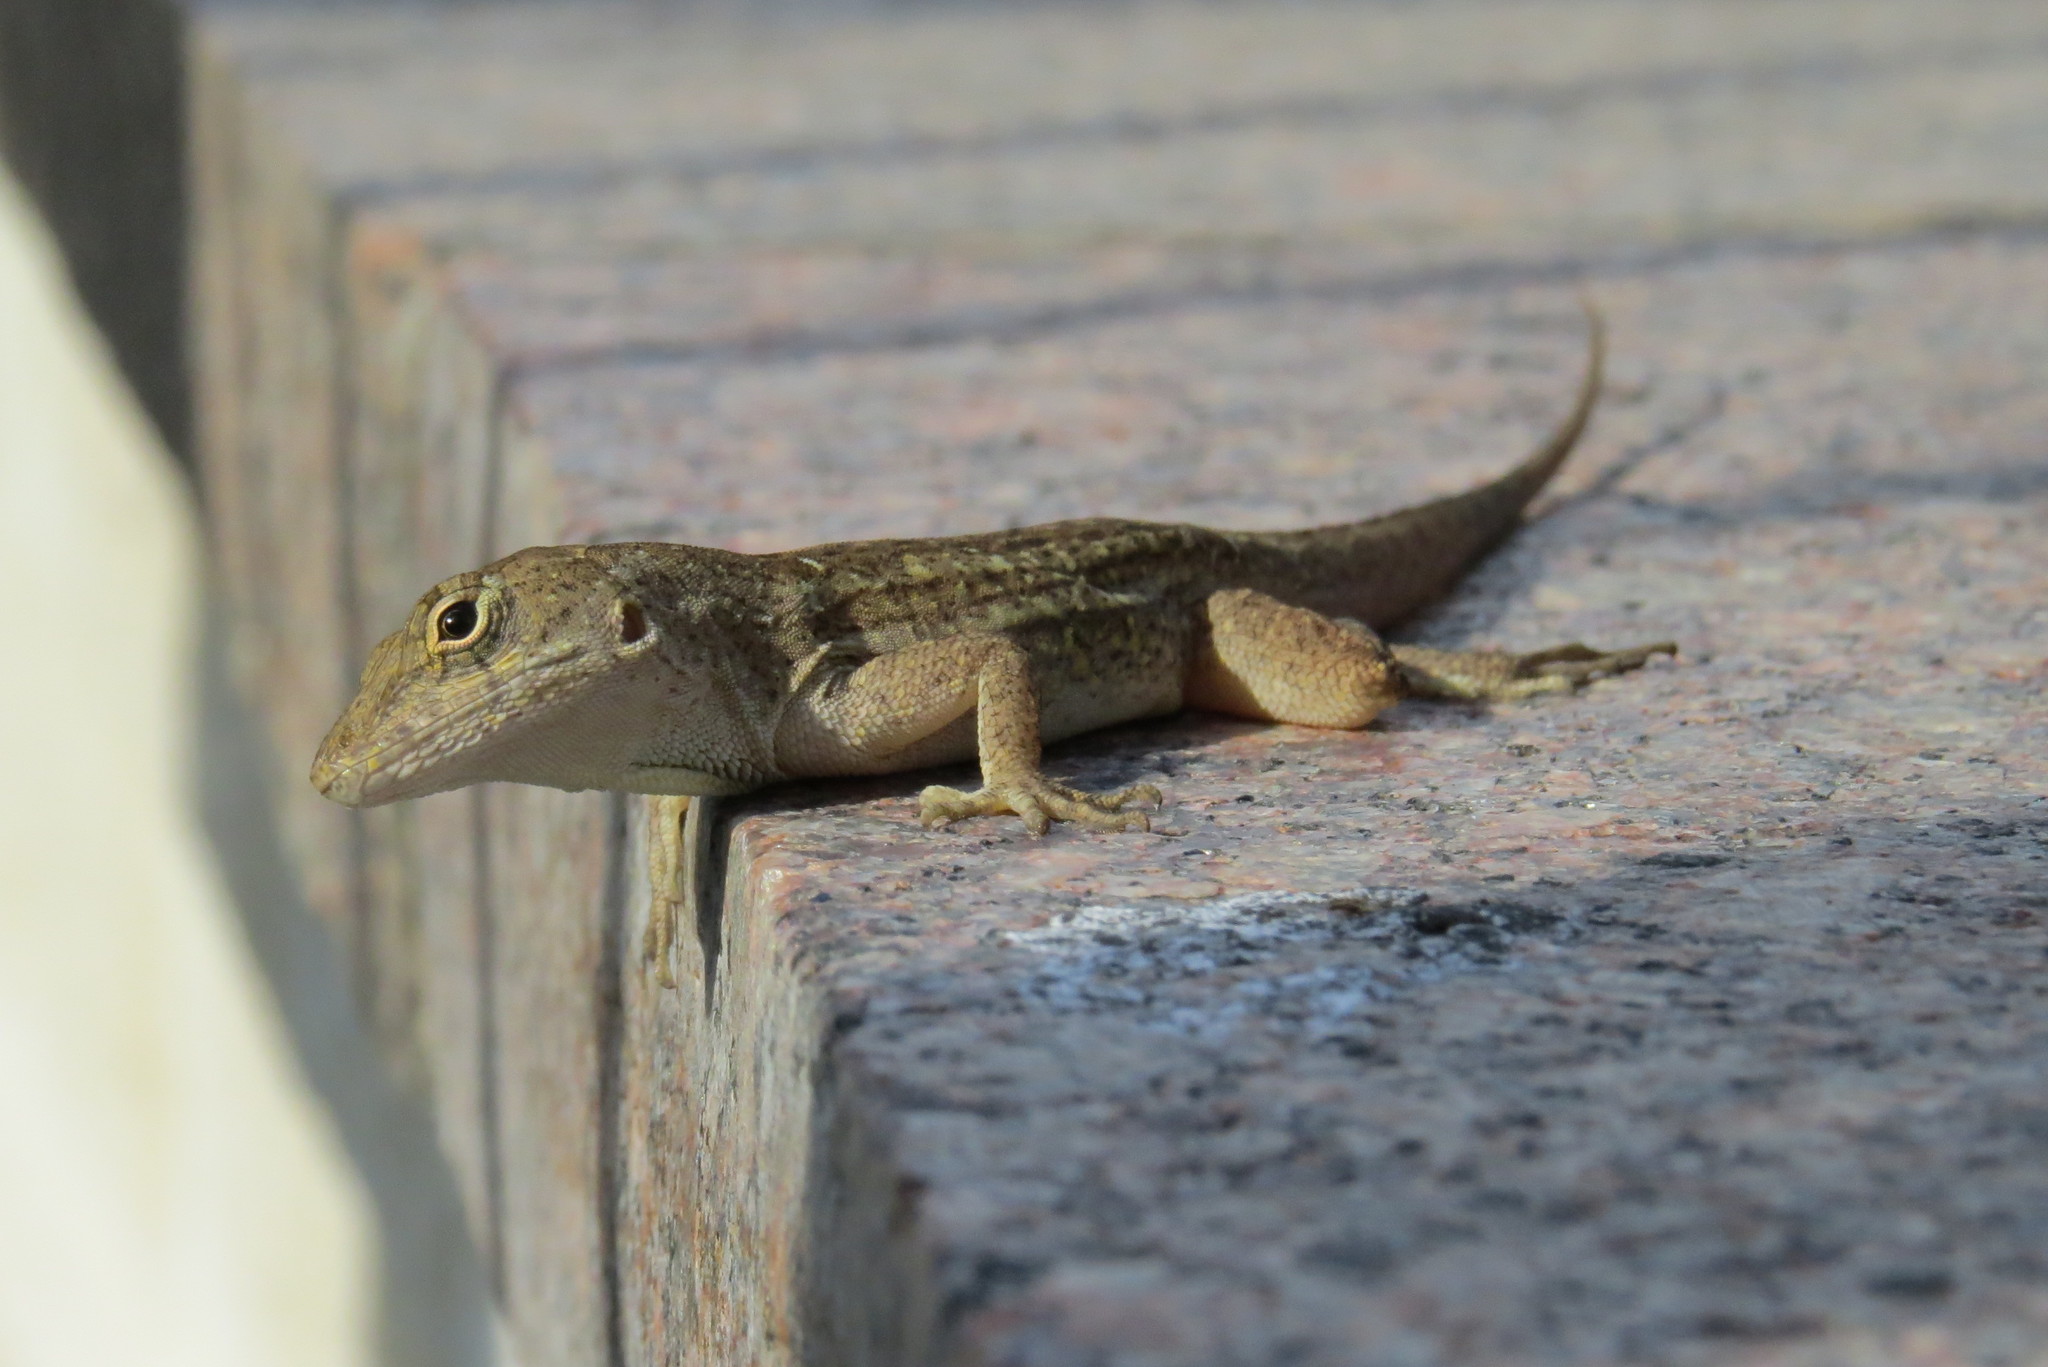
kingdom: Animalia
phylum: Chordata
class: Squamata
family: Dactyloidae
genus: Anolis
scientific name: Anolis sagrei
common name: Brown anole
